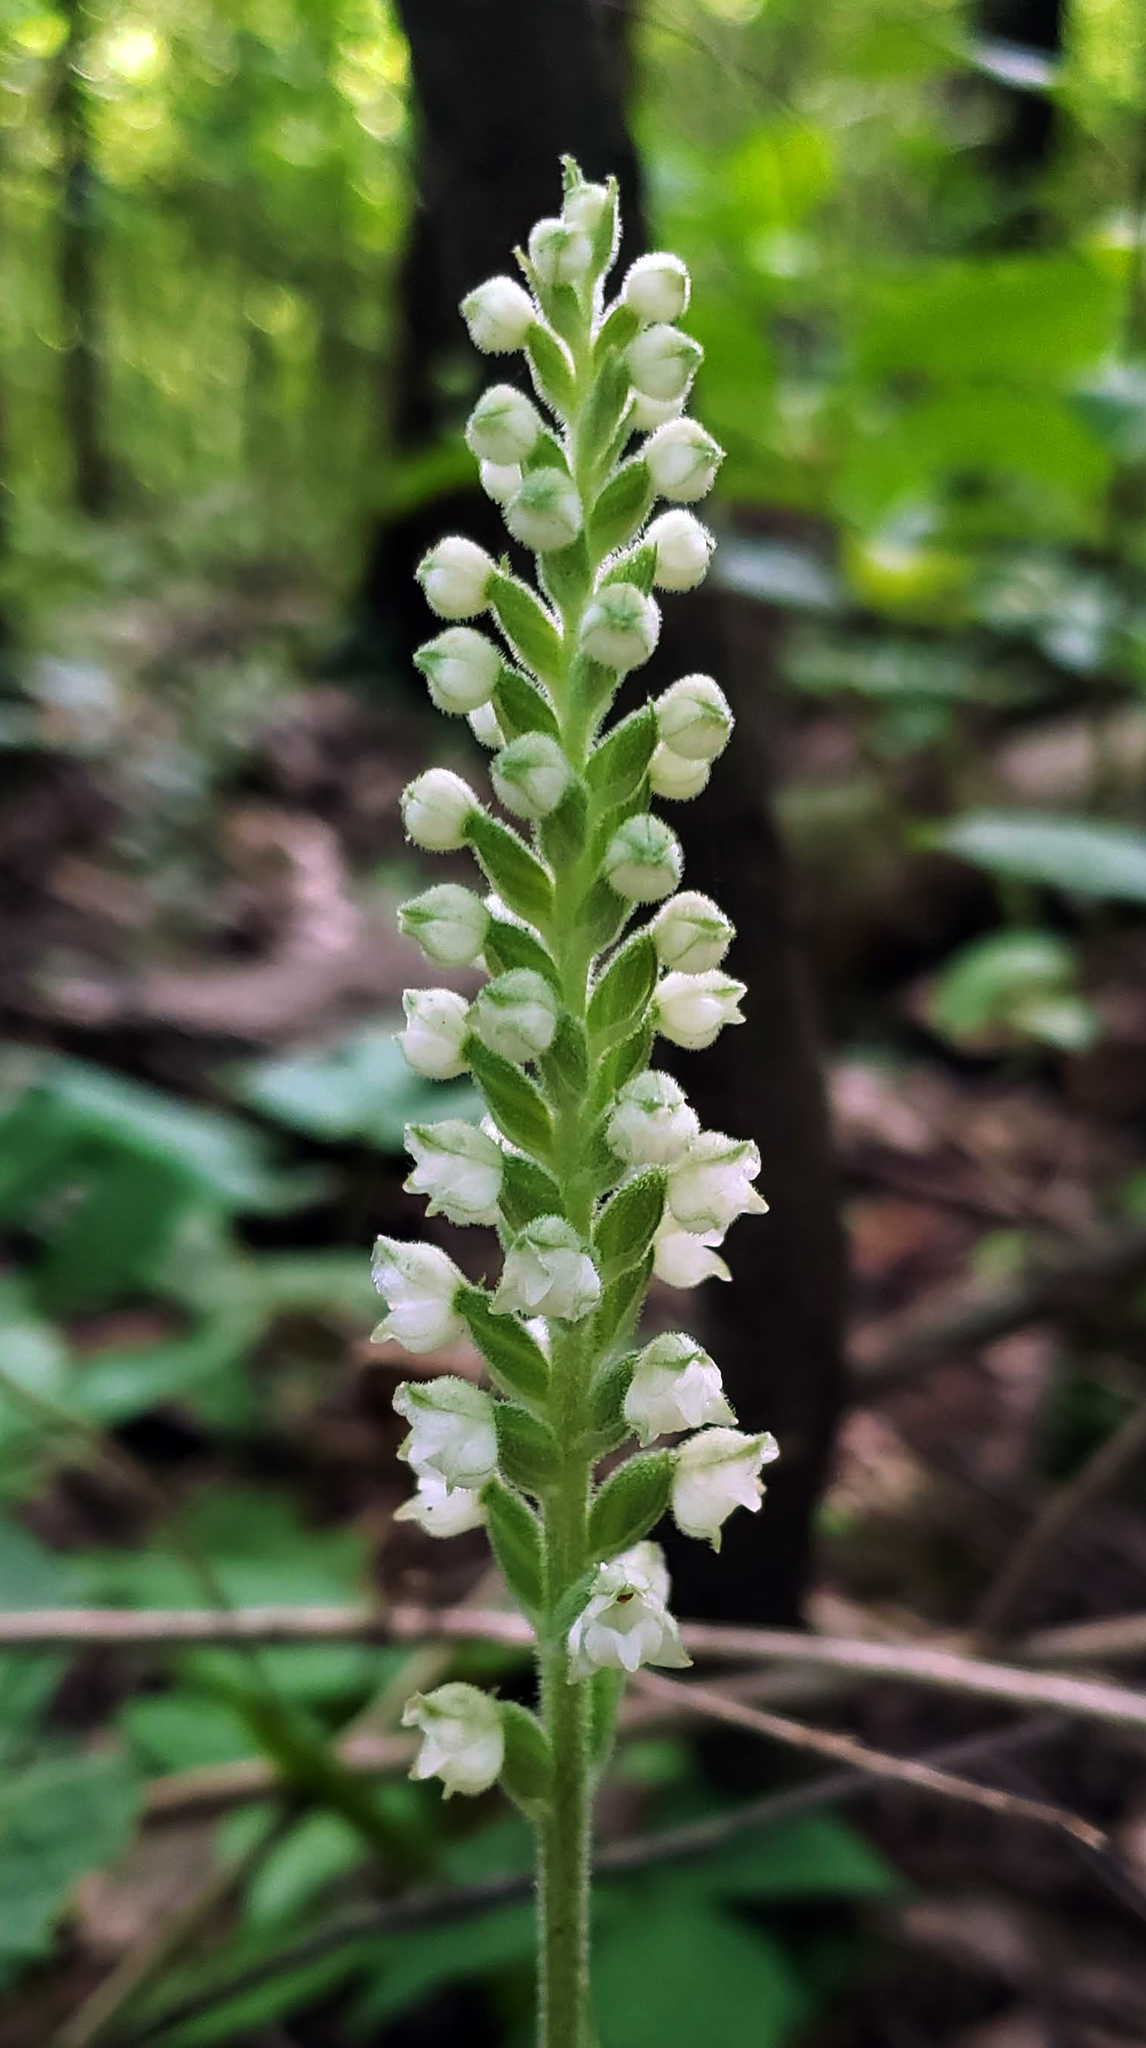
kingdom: Plantae
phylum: Tracheophyta
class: Liliopsida
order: Asparagales
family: Orchidaceae
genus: Goodyera
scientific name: Goodyera pubescens
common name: Downy rattlesnake-plantain
